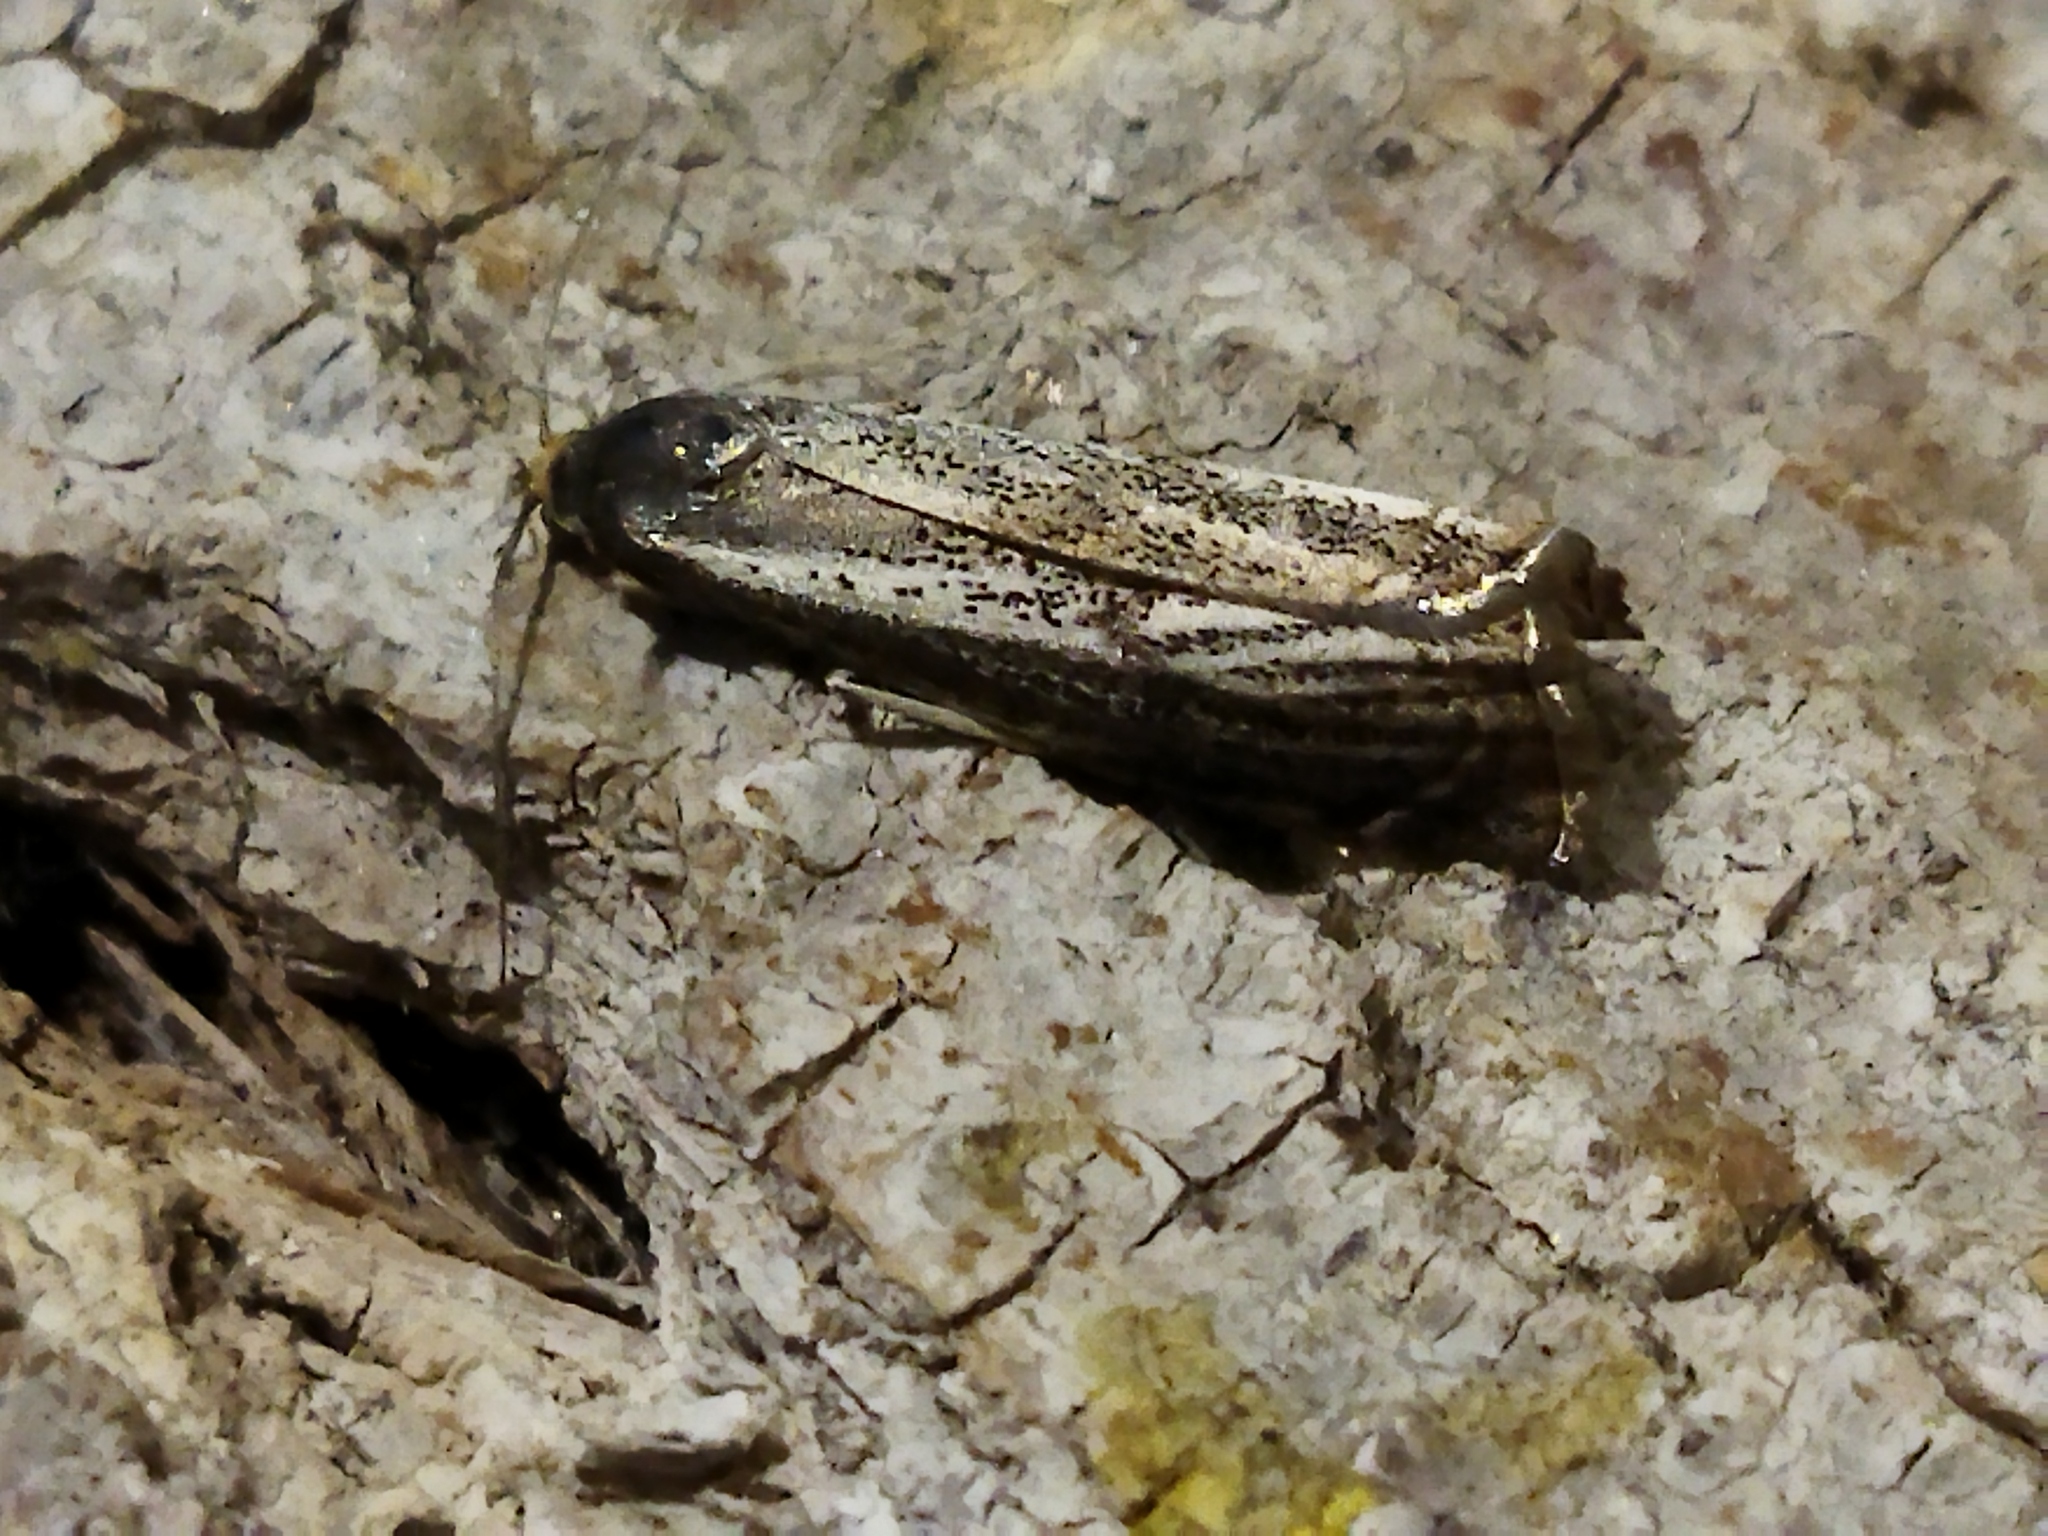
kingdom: Animalia
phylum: Arthropoda
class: Insecta
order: Lepidoptera
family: Crambidae
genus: Thisanotia
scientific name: Thisanotia chrysonuchella
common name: Powdered grass-veneer
